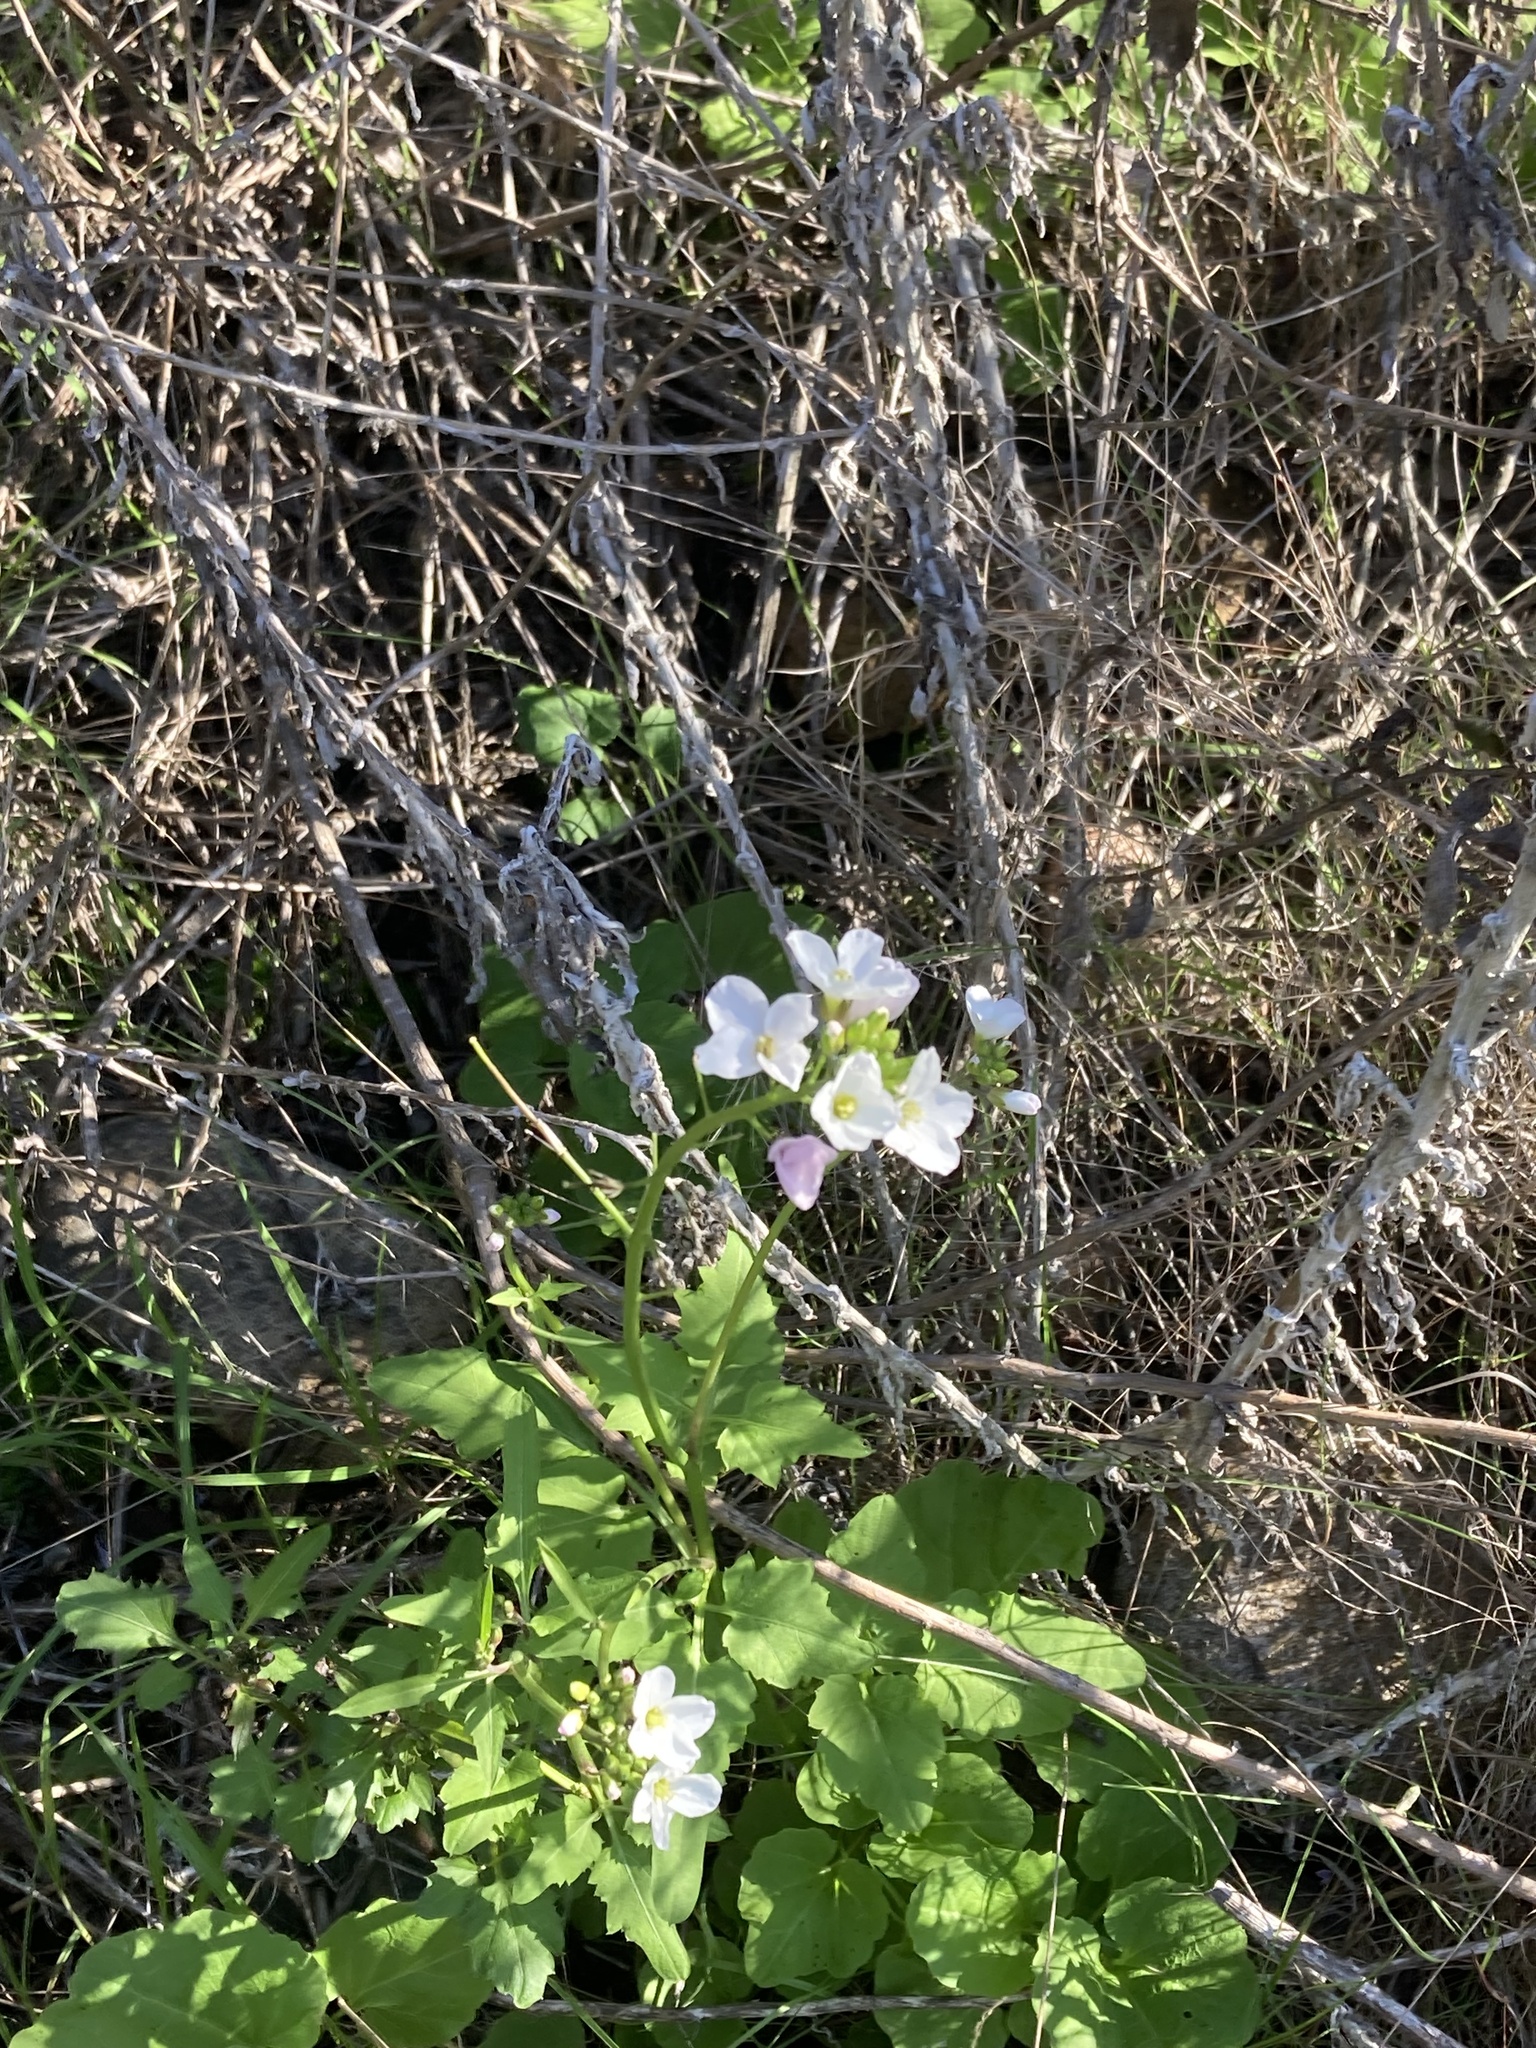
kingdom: Plantae
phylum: Tracheophyta
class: Magnoliopsida
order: Brassicales
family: Brassicaceae
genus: Cardamine
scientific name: Cardamine californica
